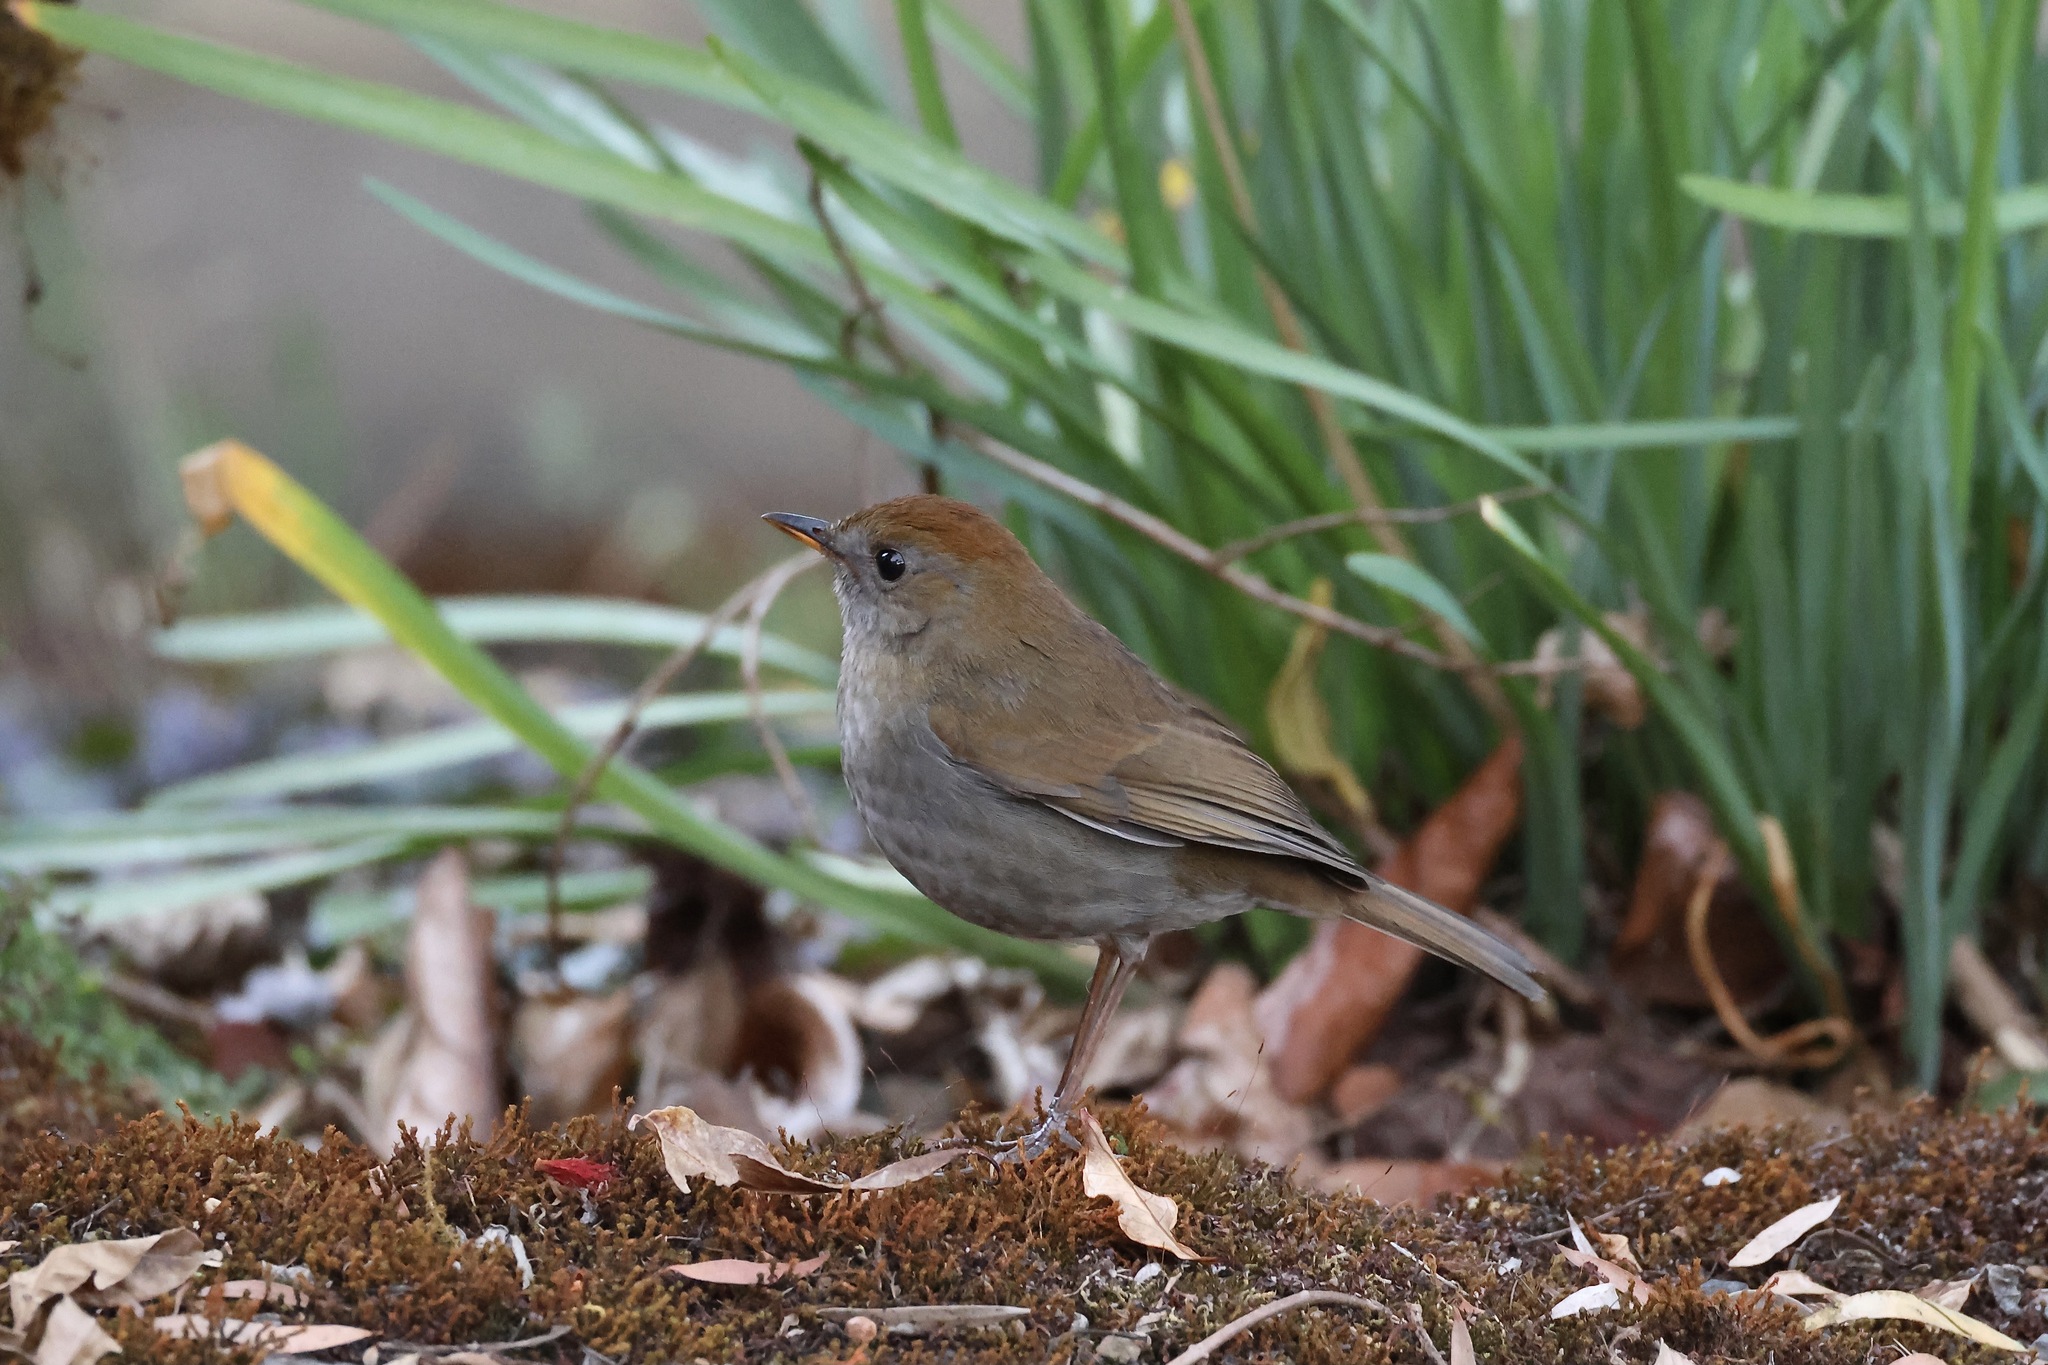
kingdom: Animalia
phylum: Chordata
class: Aves
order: Passeriformes
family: Turdidae
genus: Catharus
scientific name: Catharus frantzii
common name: Ruddy-capped nightingale-thrush
